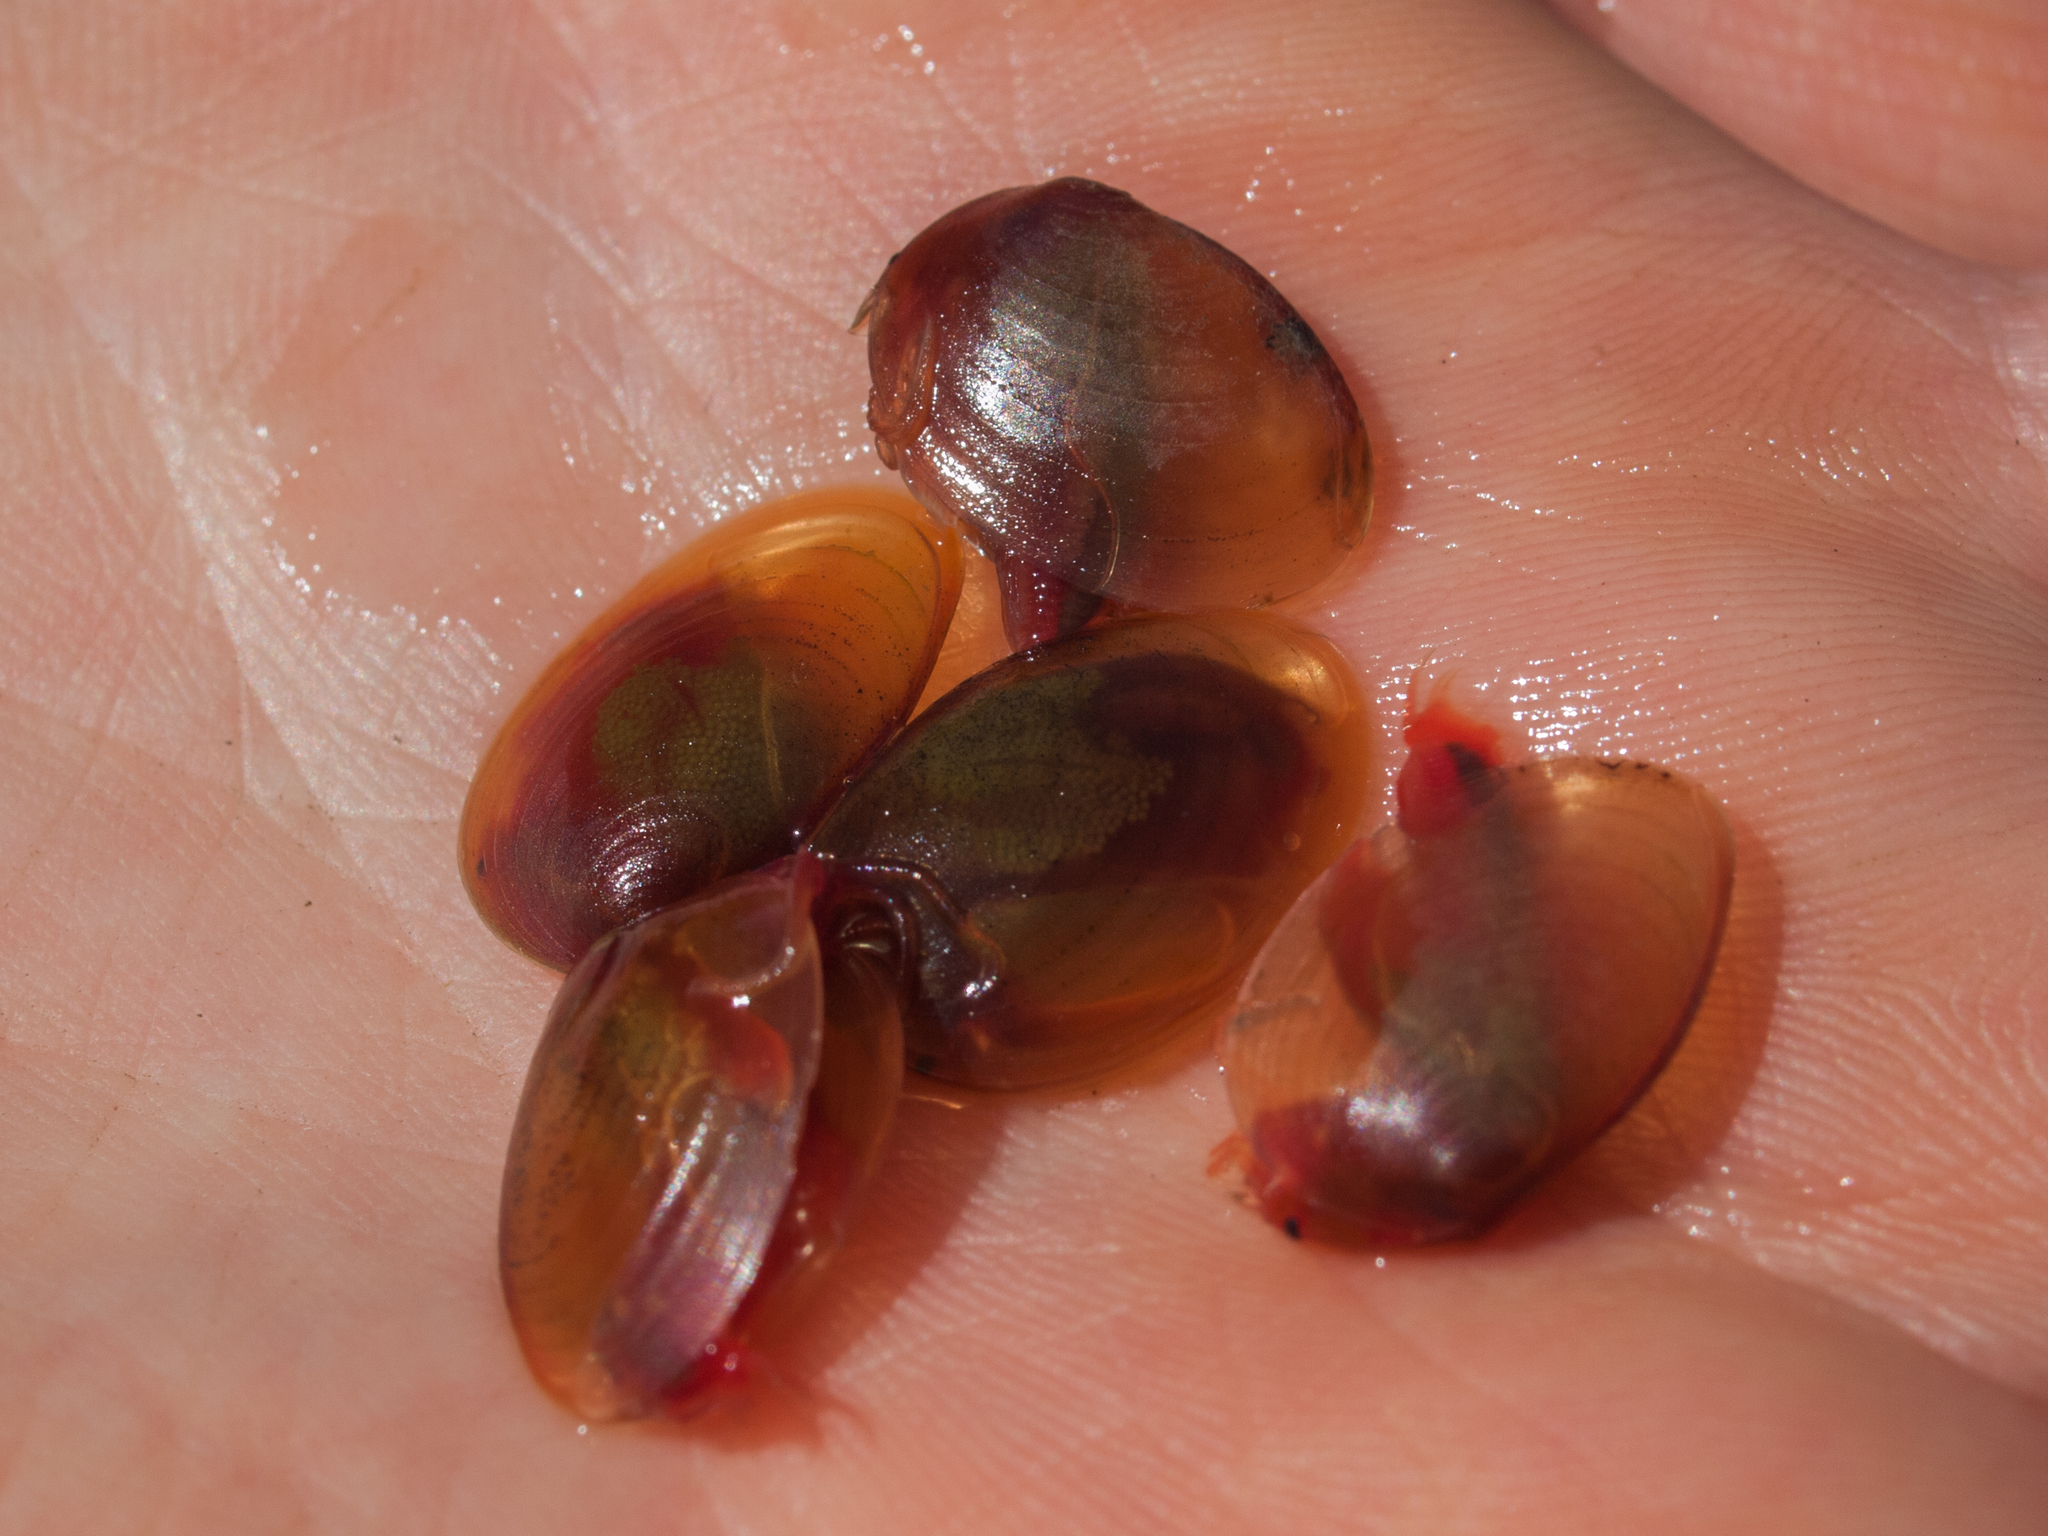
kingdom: Animalia
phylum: Arthropoda
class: Branchiopoda
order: Diplostraca
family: Cyzicidae
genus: Cyzicus
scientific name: Cyzicus californicus
